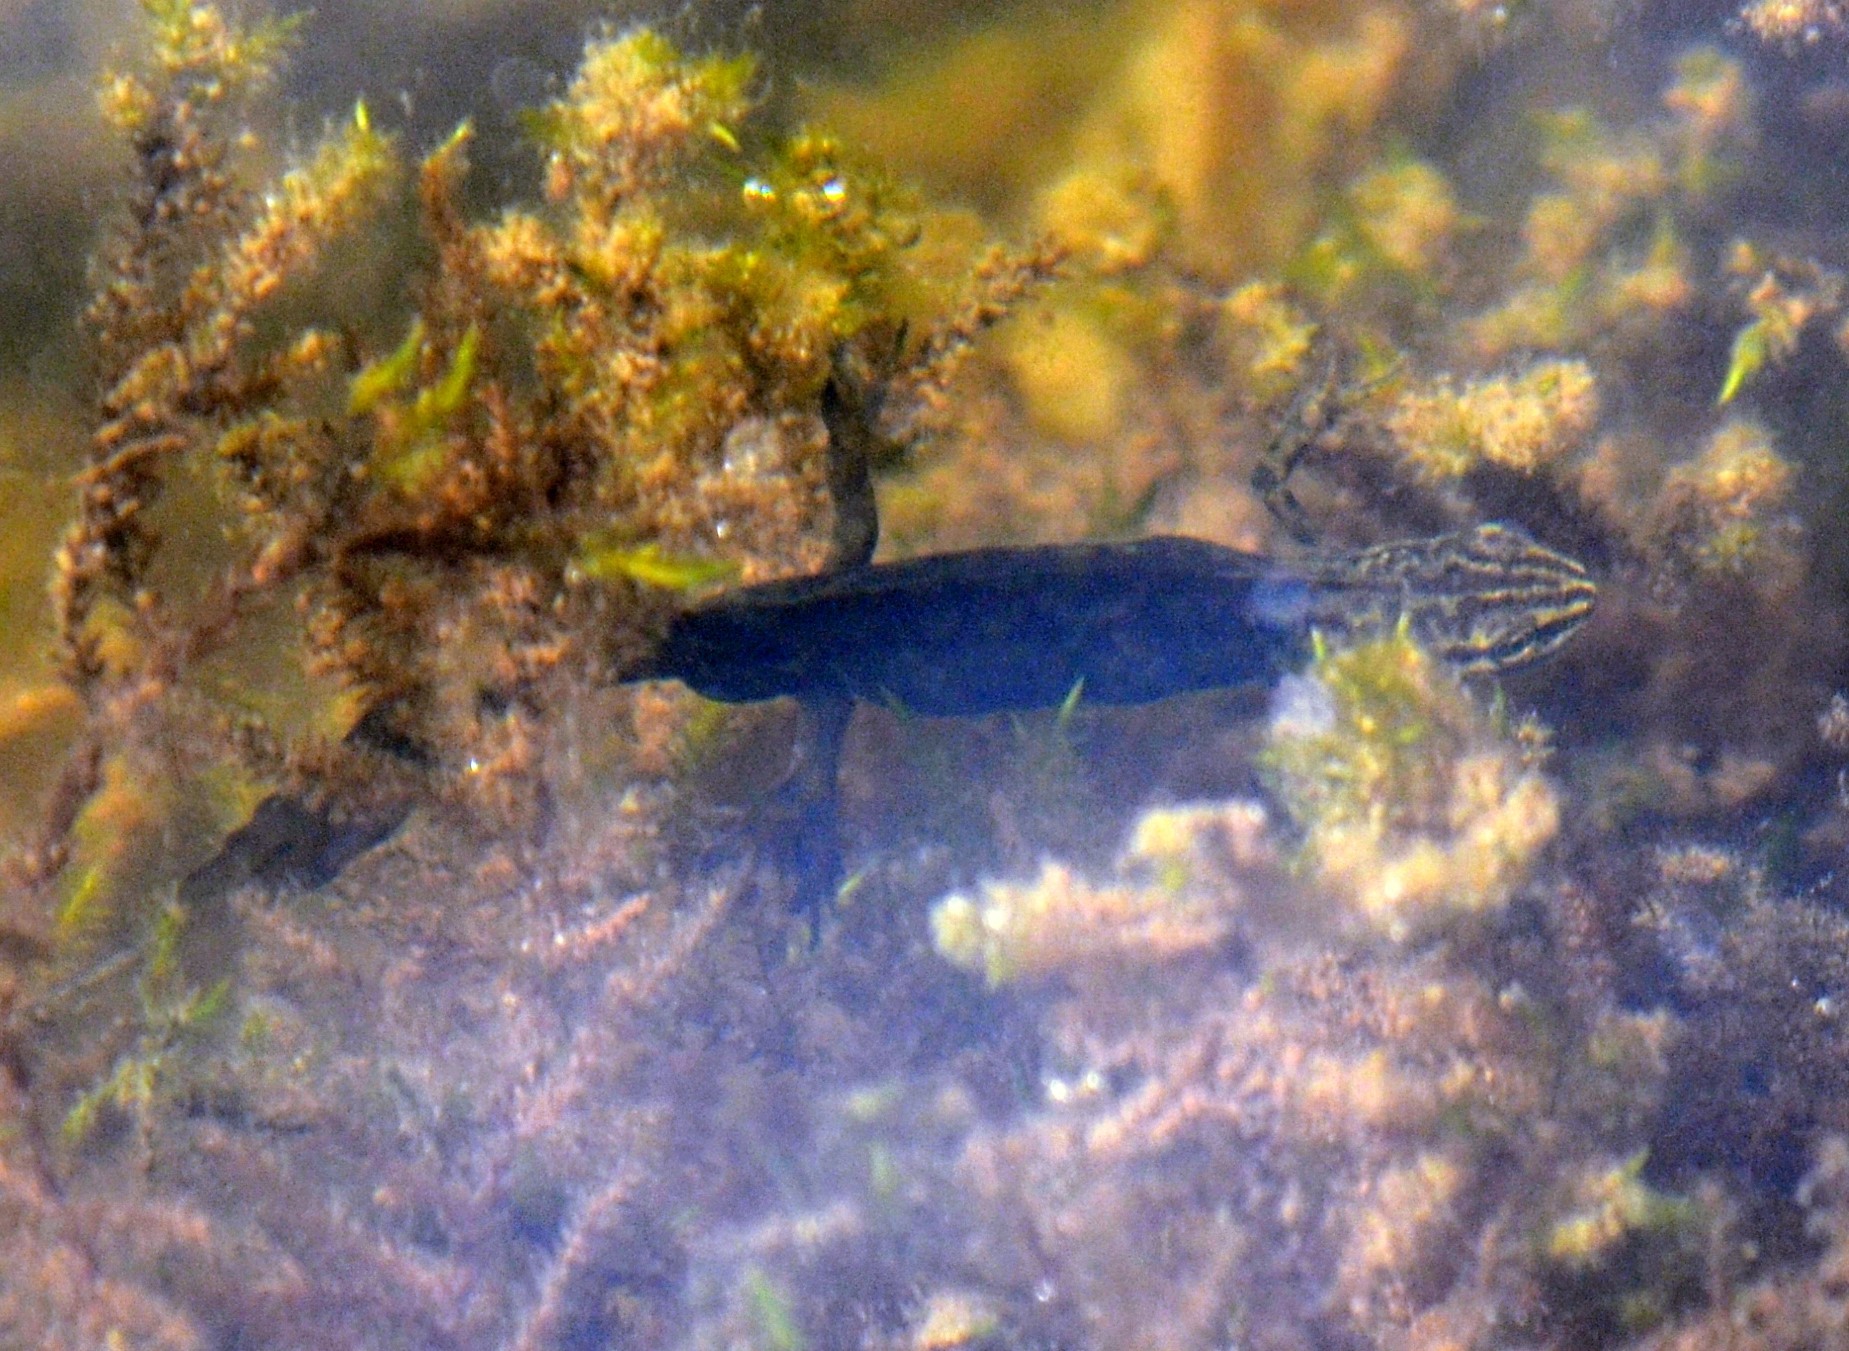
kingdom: Animalia
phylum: Chordata
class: Amphibia
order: Caudata
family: Salamandridae
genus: Lissotriton
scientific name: Lissotriton vulgaris
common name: Smooth newt
